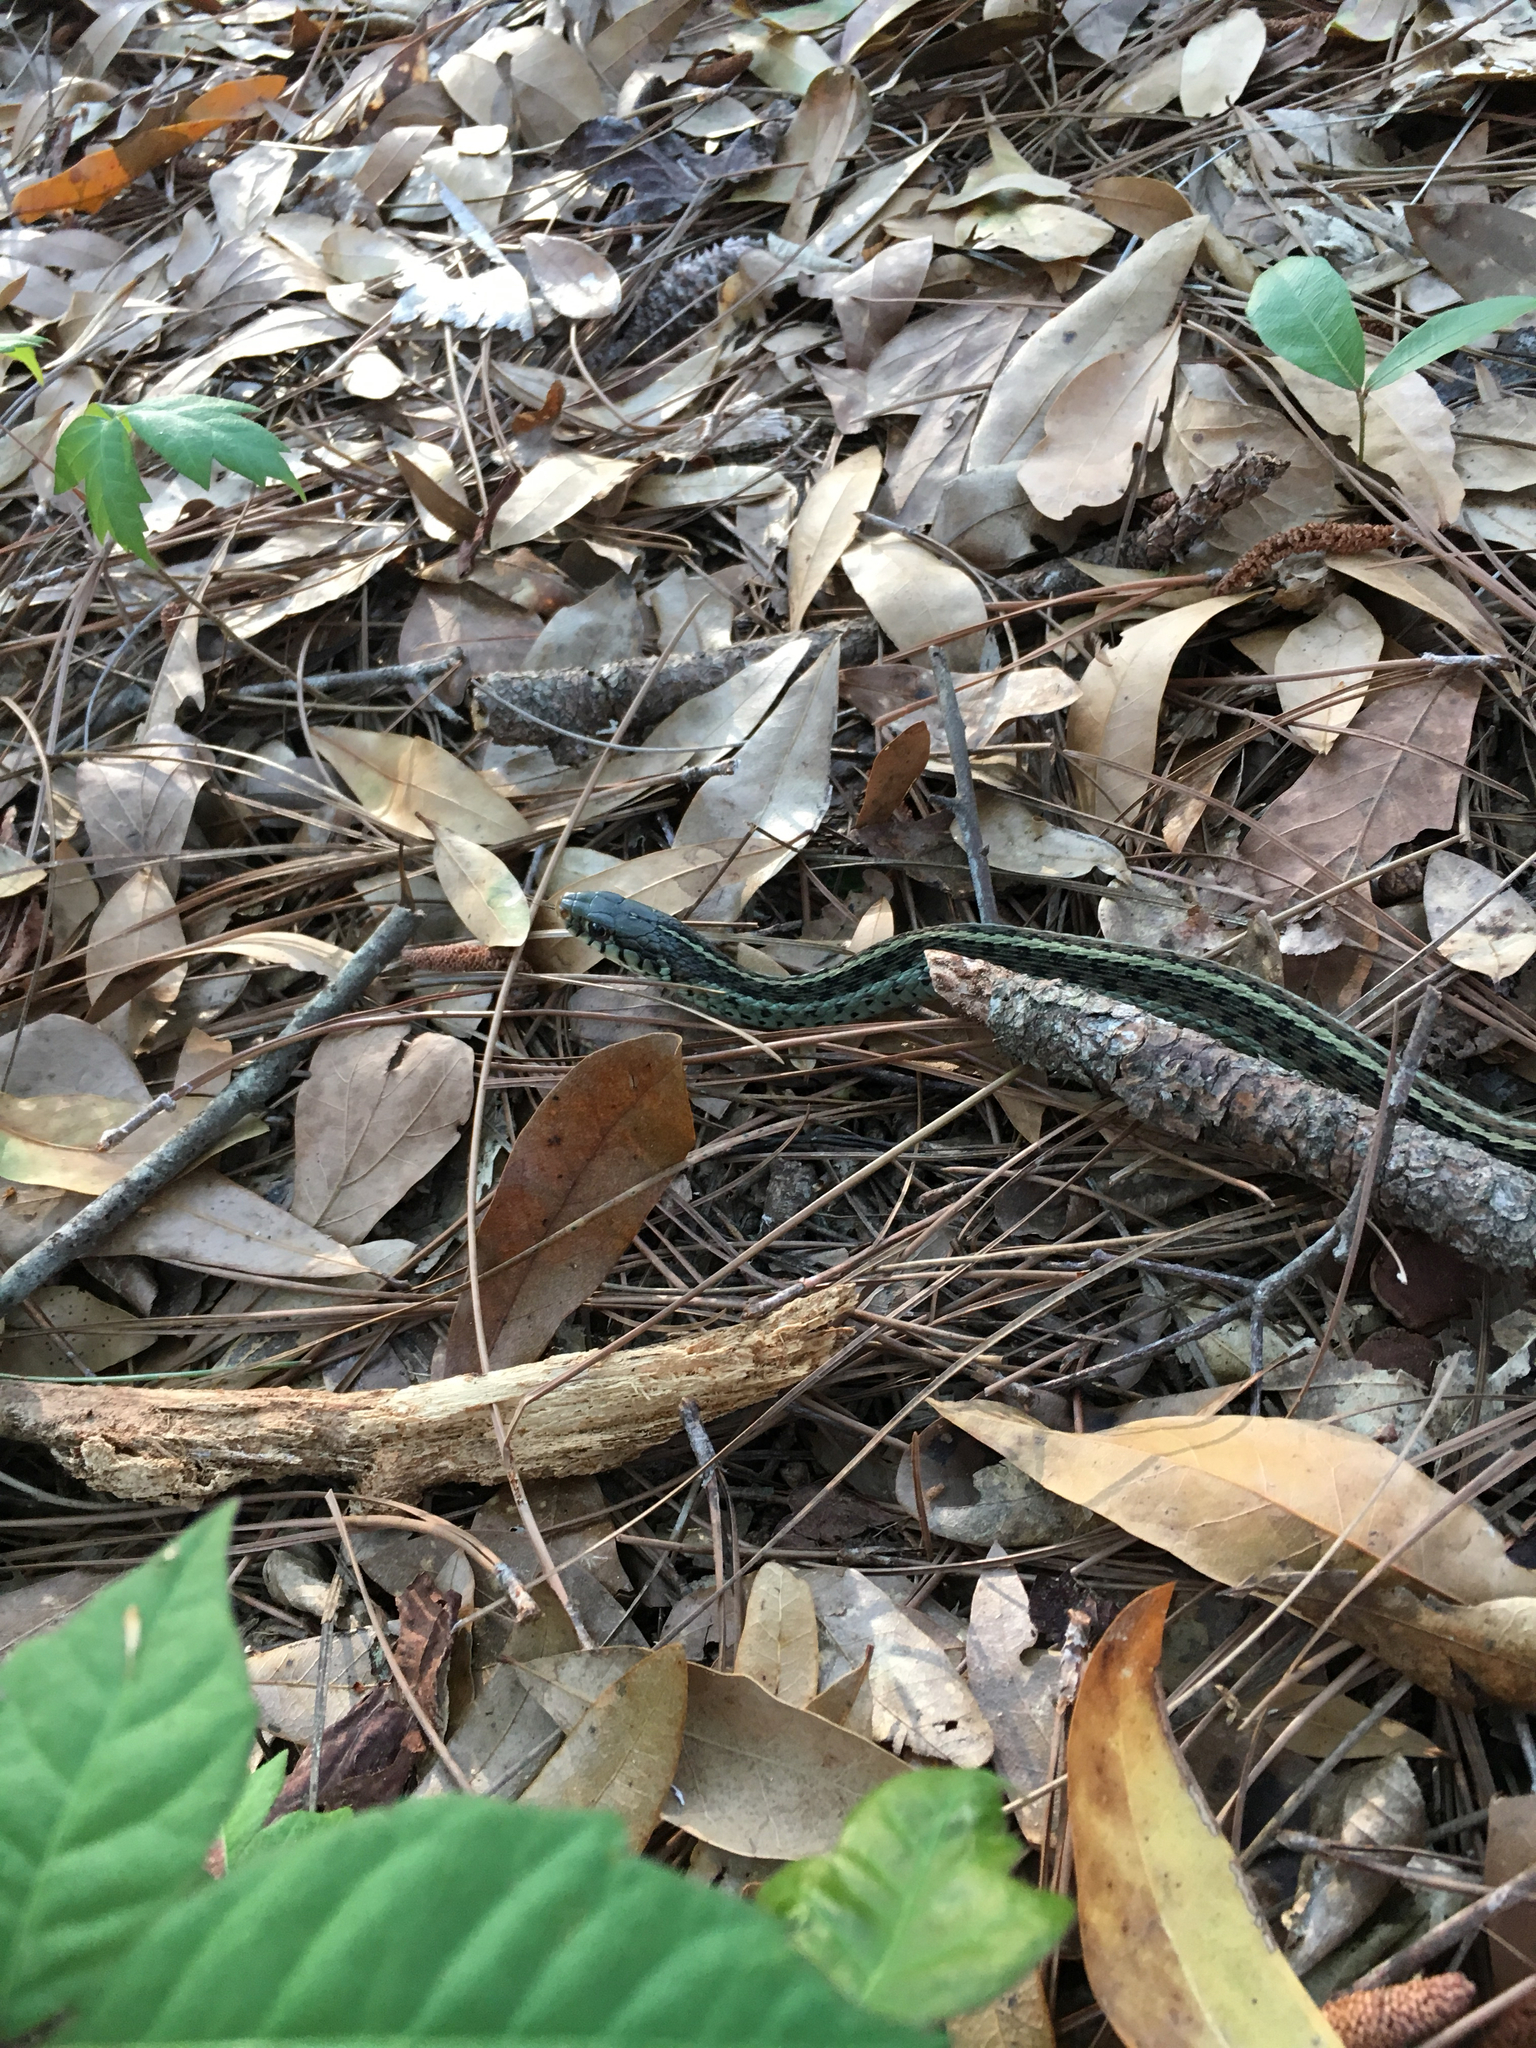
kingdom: Animalia
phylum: Chordata
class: Squamata
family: Colubridae
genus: Thamnophis
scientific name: Thamnophis sirtalis
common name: Common garter snake
